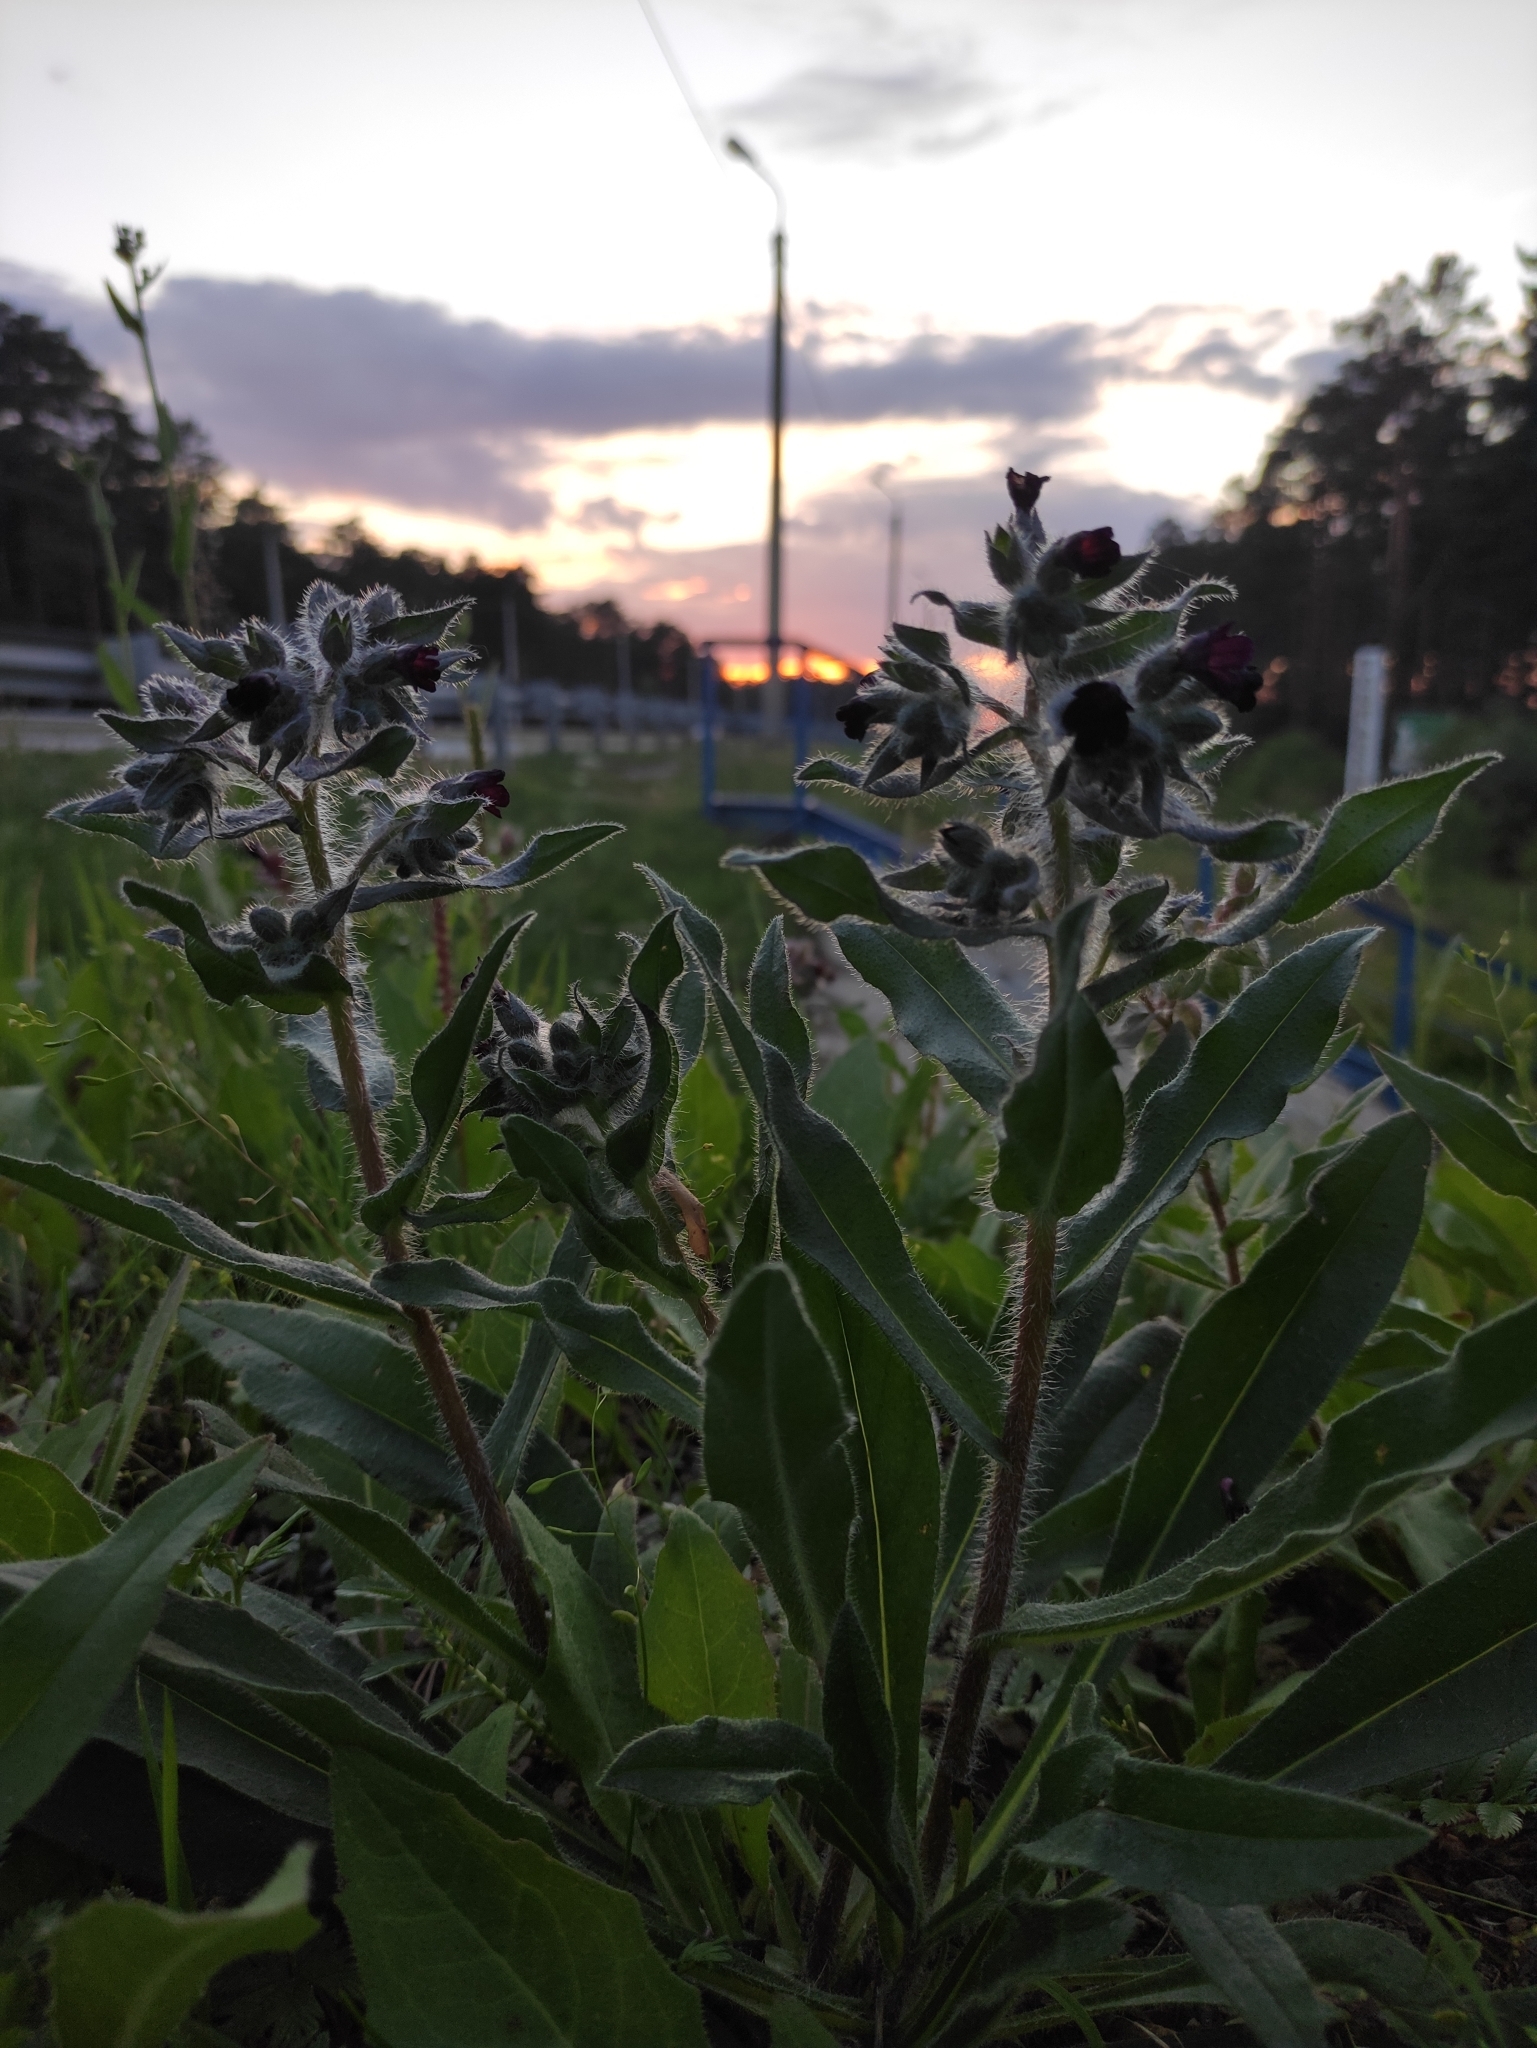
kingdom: Plantae
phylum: Tracheophyta
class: Magnoliopsida
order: Boraginales
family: Boraginaceae
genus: Nonea
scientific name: Nonea pulla
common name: Brown nonea
